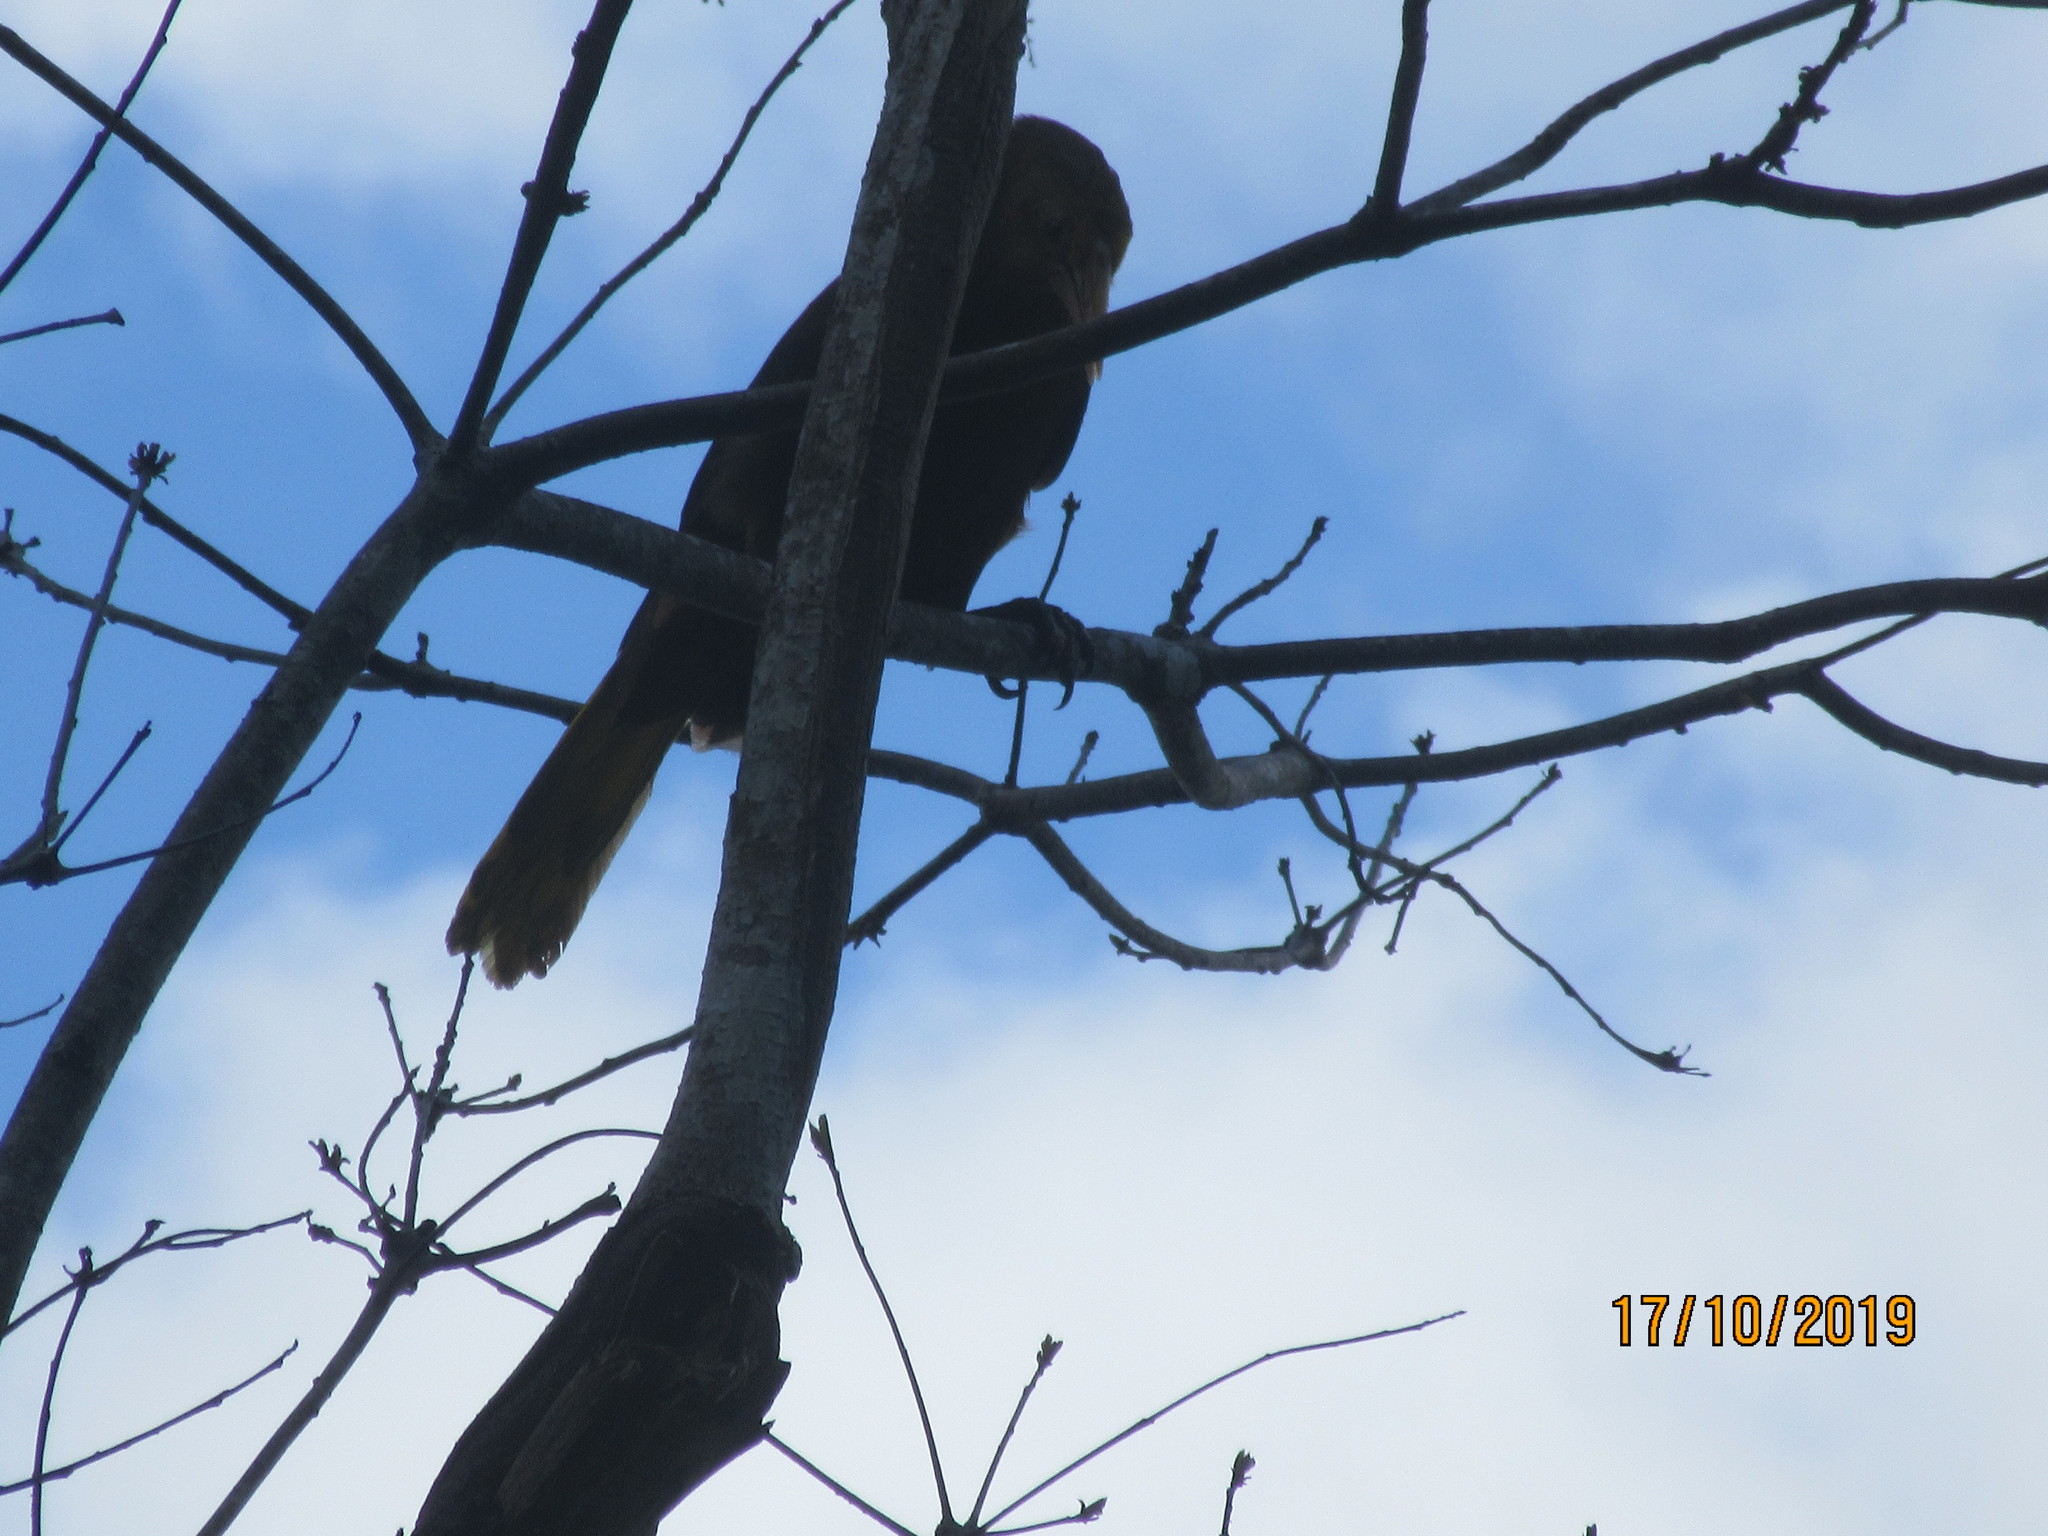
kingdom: Animalia
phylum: Chordata
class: Aves
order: Passeriformes
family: Icteridae
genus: Psarocolius
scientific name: Psarocolius angustifrons
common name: Russet-backed oropendola
